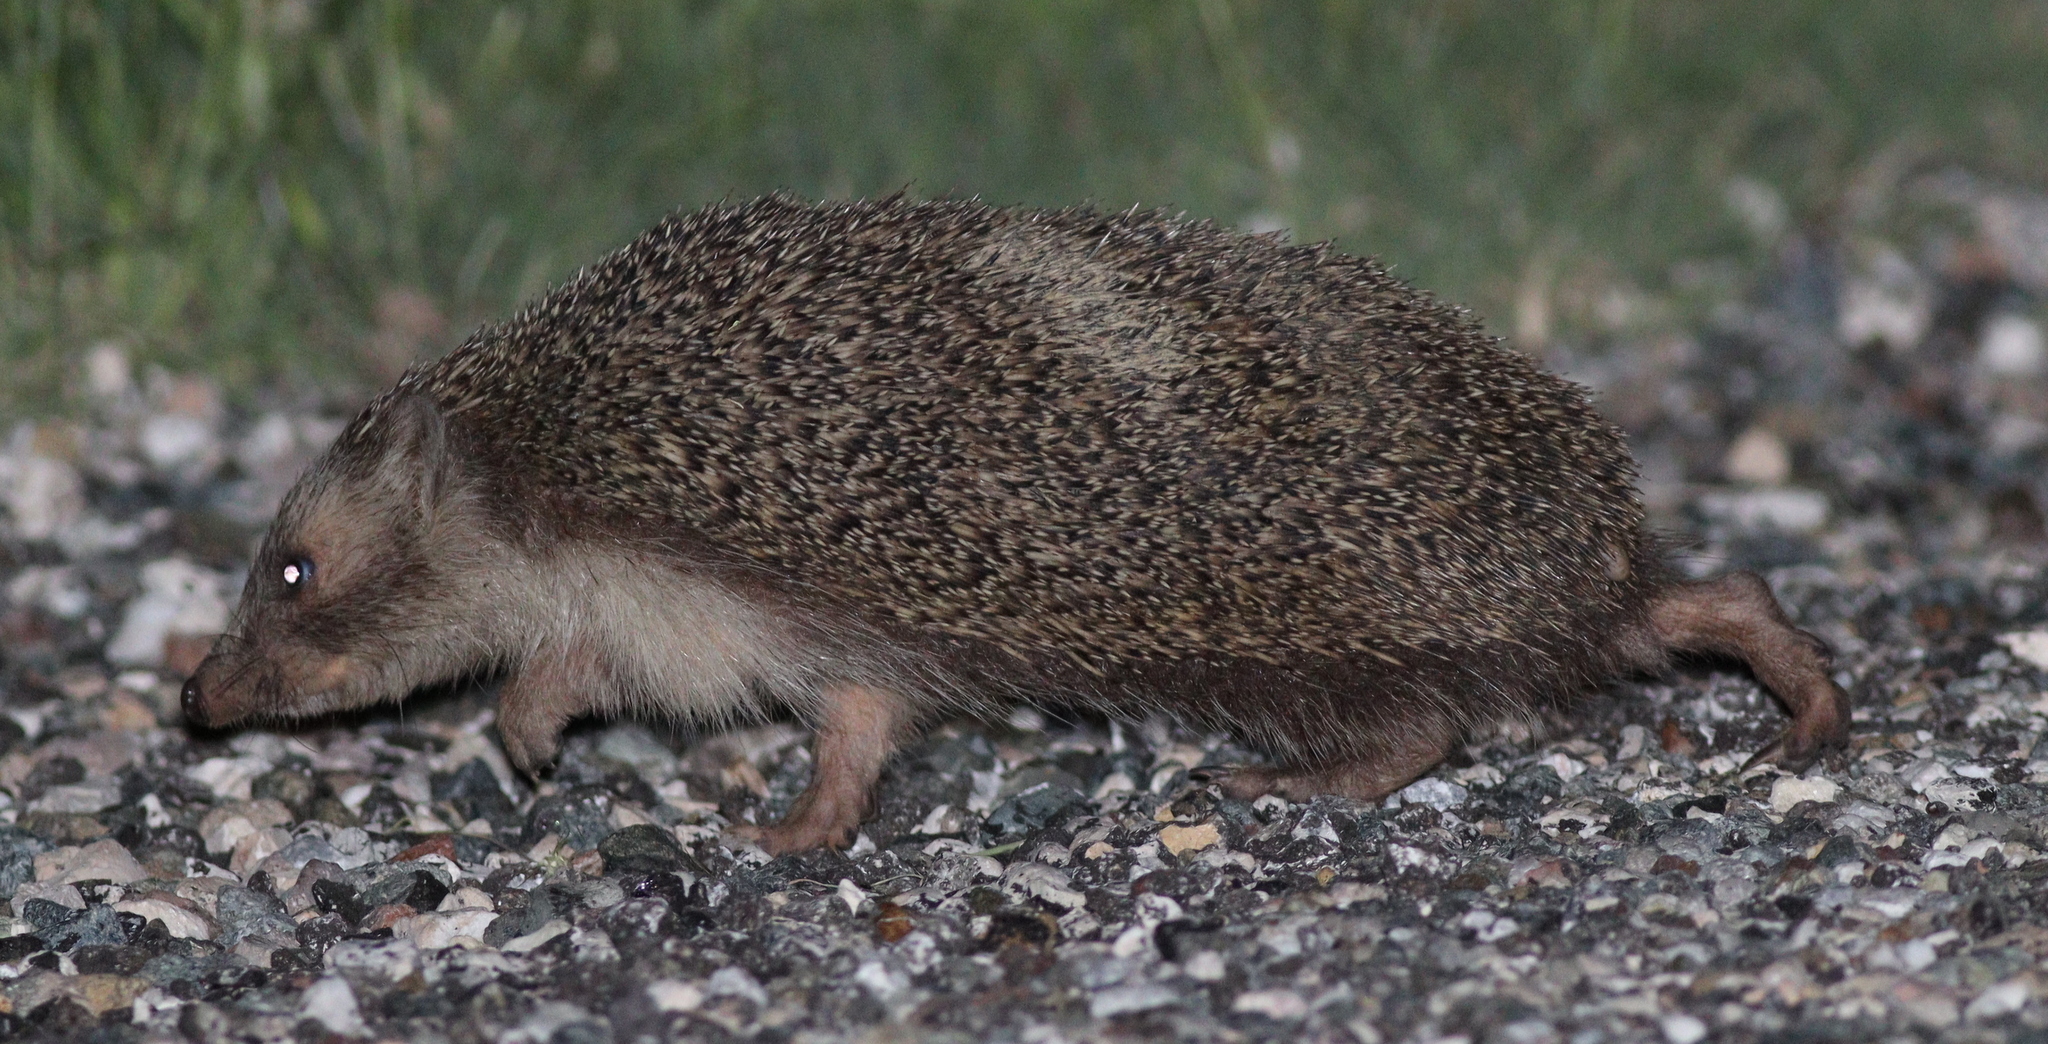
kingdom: Animalia
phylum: Chordata
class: Mammalia
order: Erinaceomorpha
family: Erinaceidae
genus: Erinaceus
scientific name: Erinaceus concolor
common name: Southern white-breasted hedgehog
